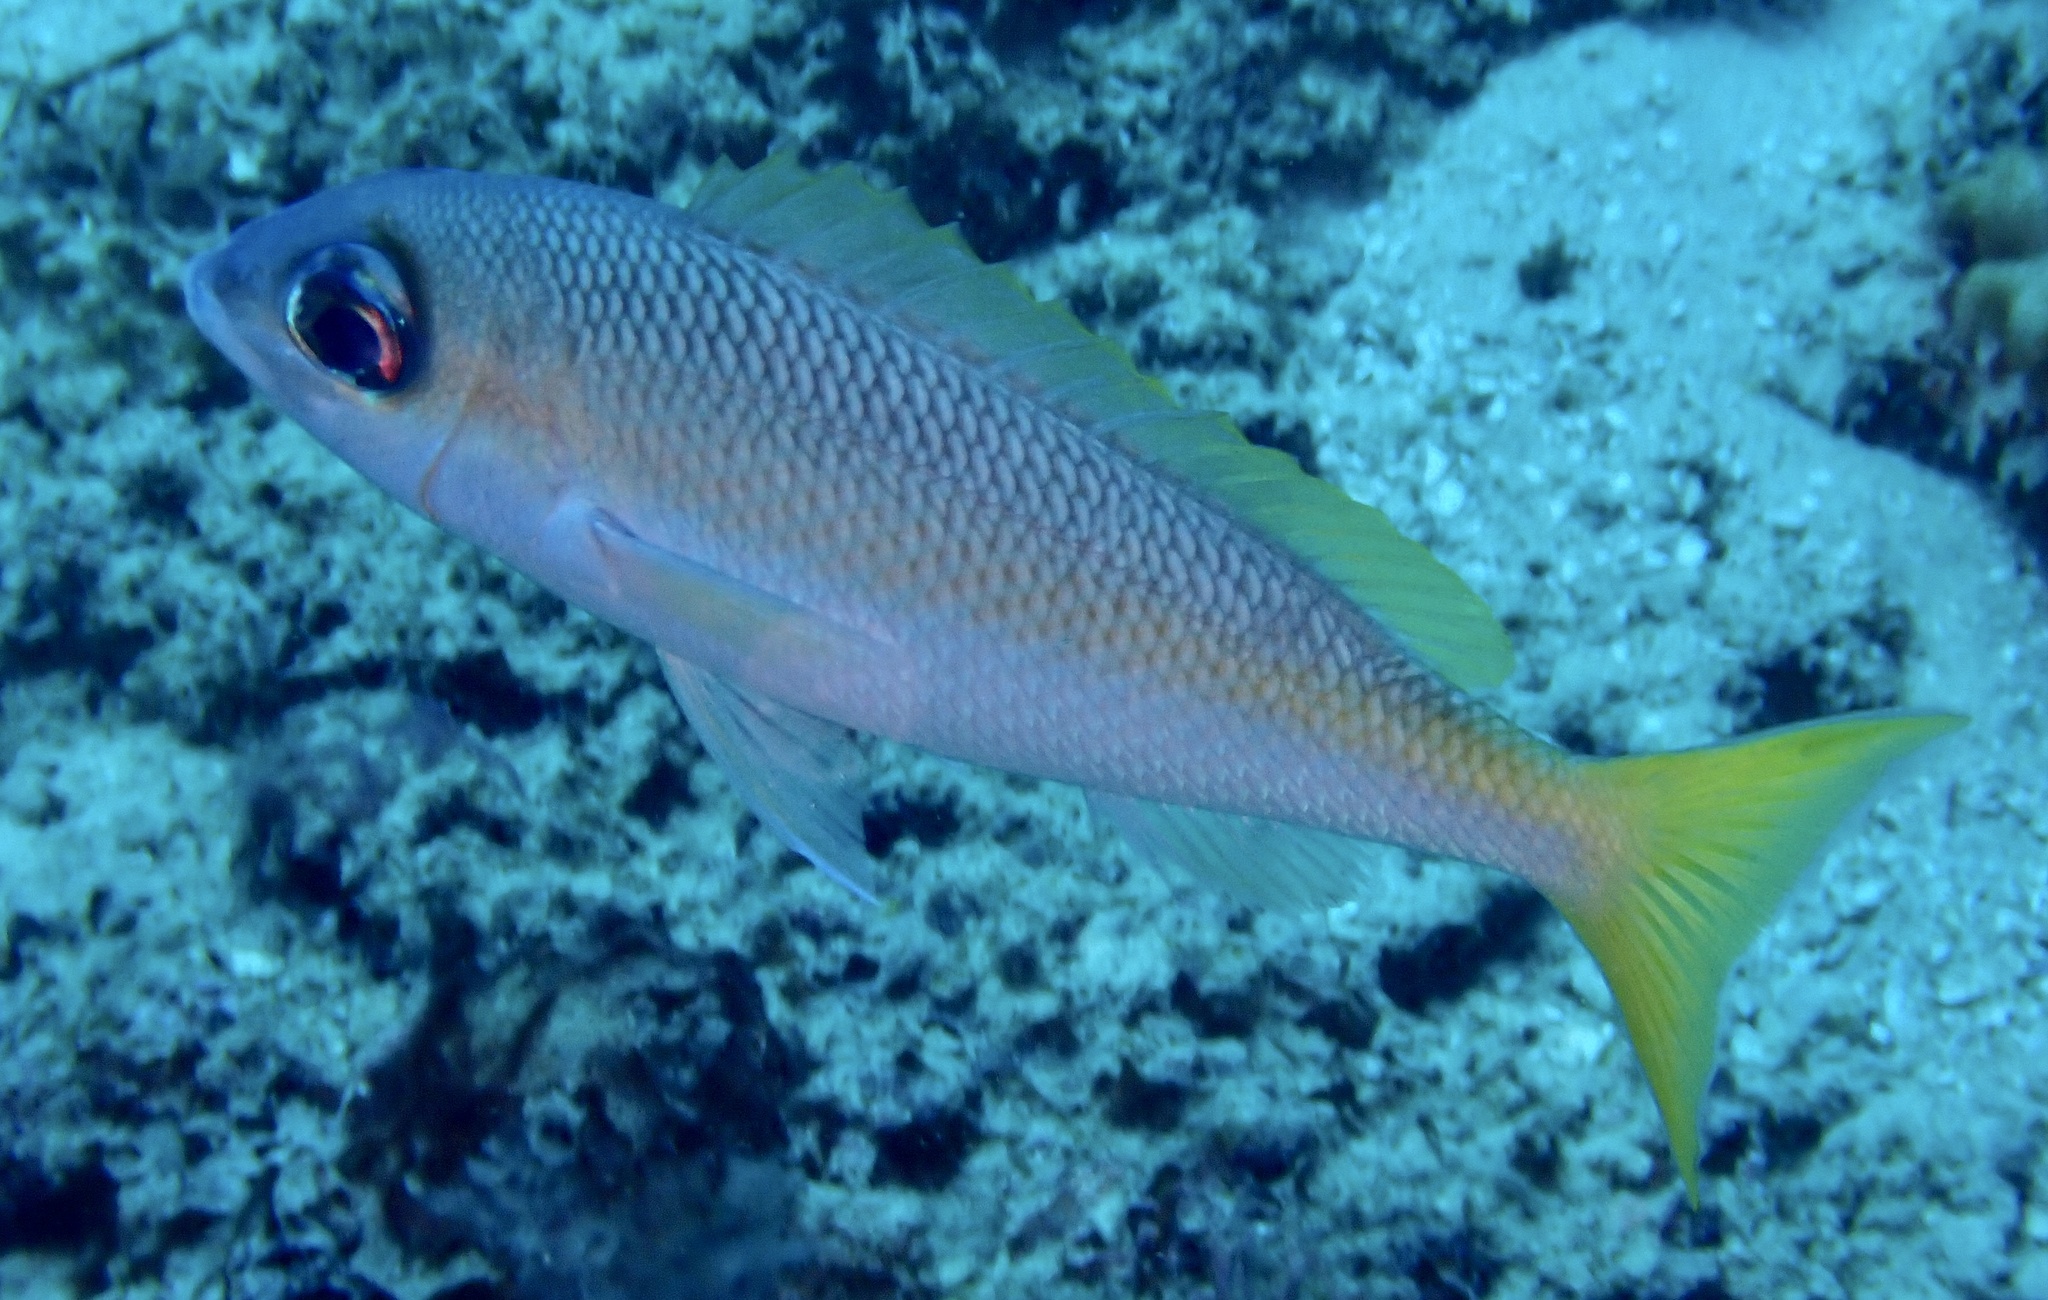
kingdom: Animalia
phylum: Chordata
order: Perciformes
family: Nemipteridae
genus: Scolopsis
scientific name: Scolopsis affinis
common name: Peters' monocle bream
